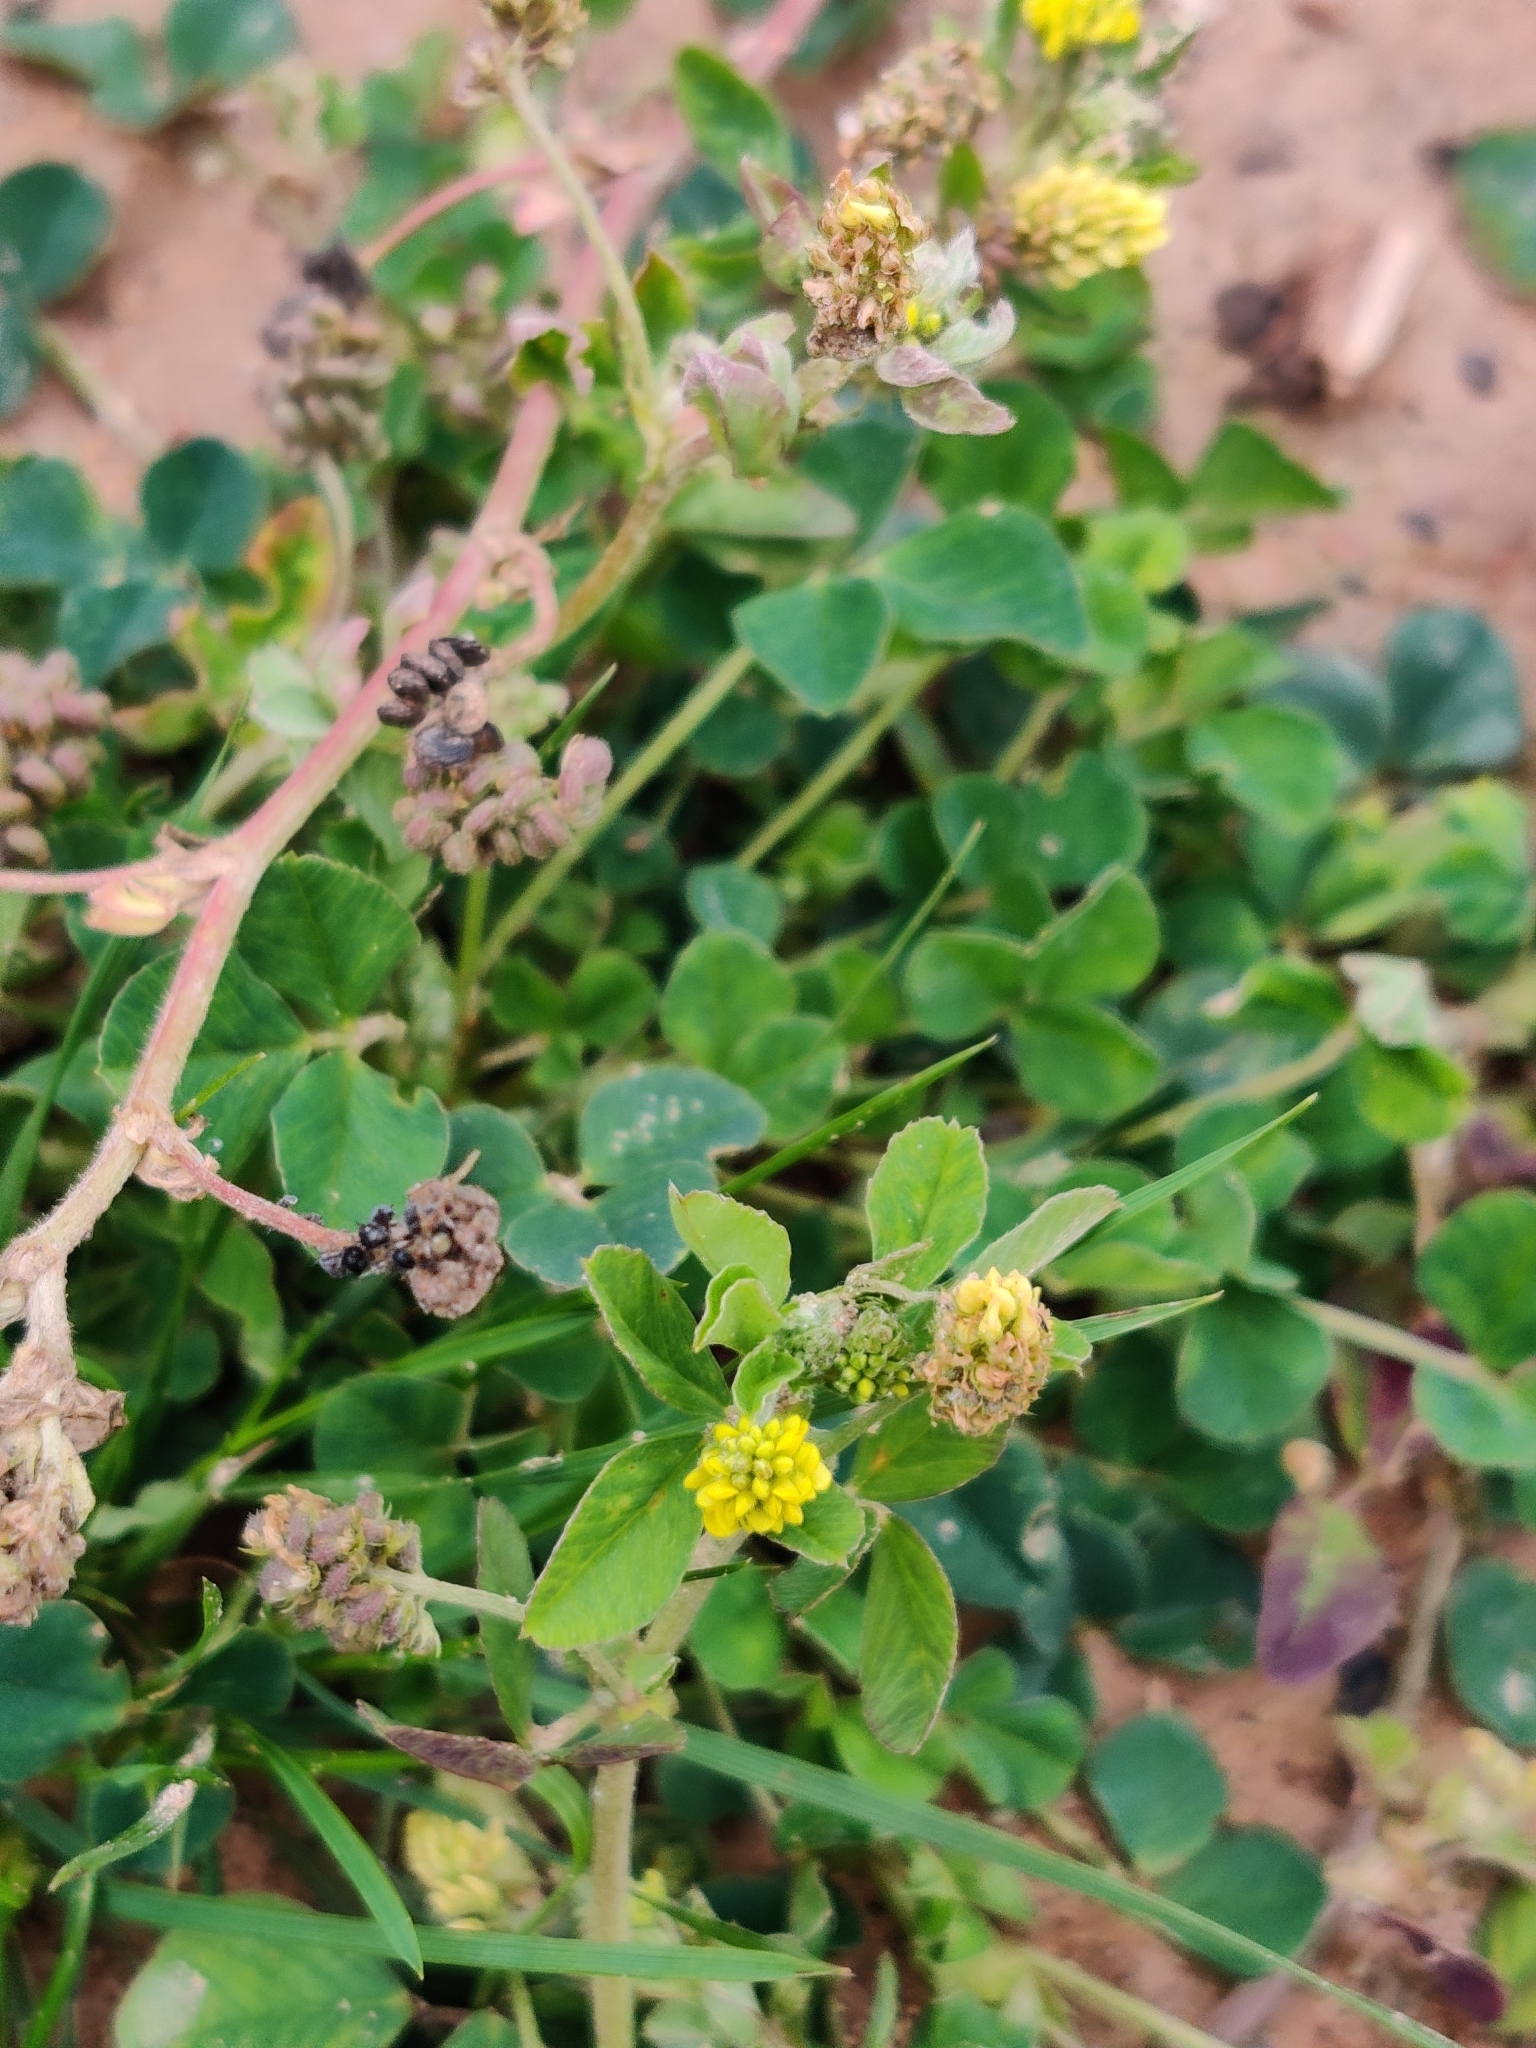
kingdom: Plantae
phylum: Tracheophyta
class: Magnoliopsida
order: Fabales
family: Fabaceae
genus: Medicago
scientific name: Medicago lupulina
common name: Black medick
